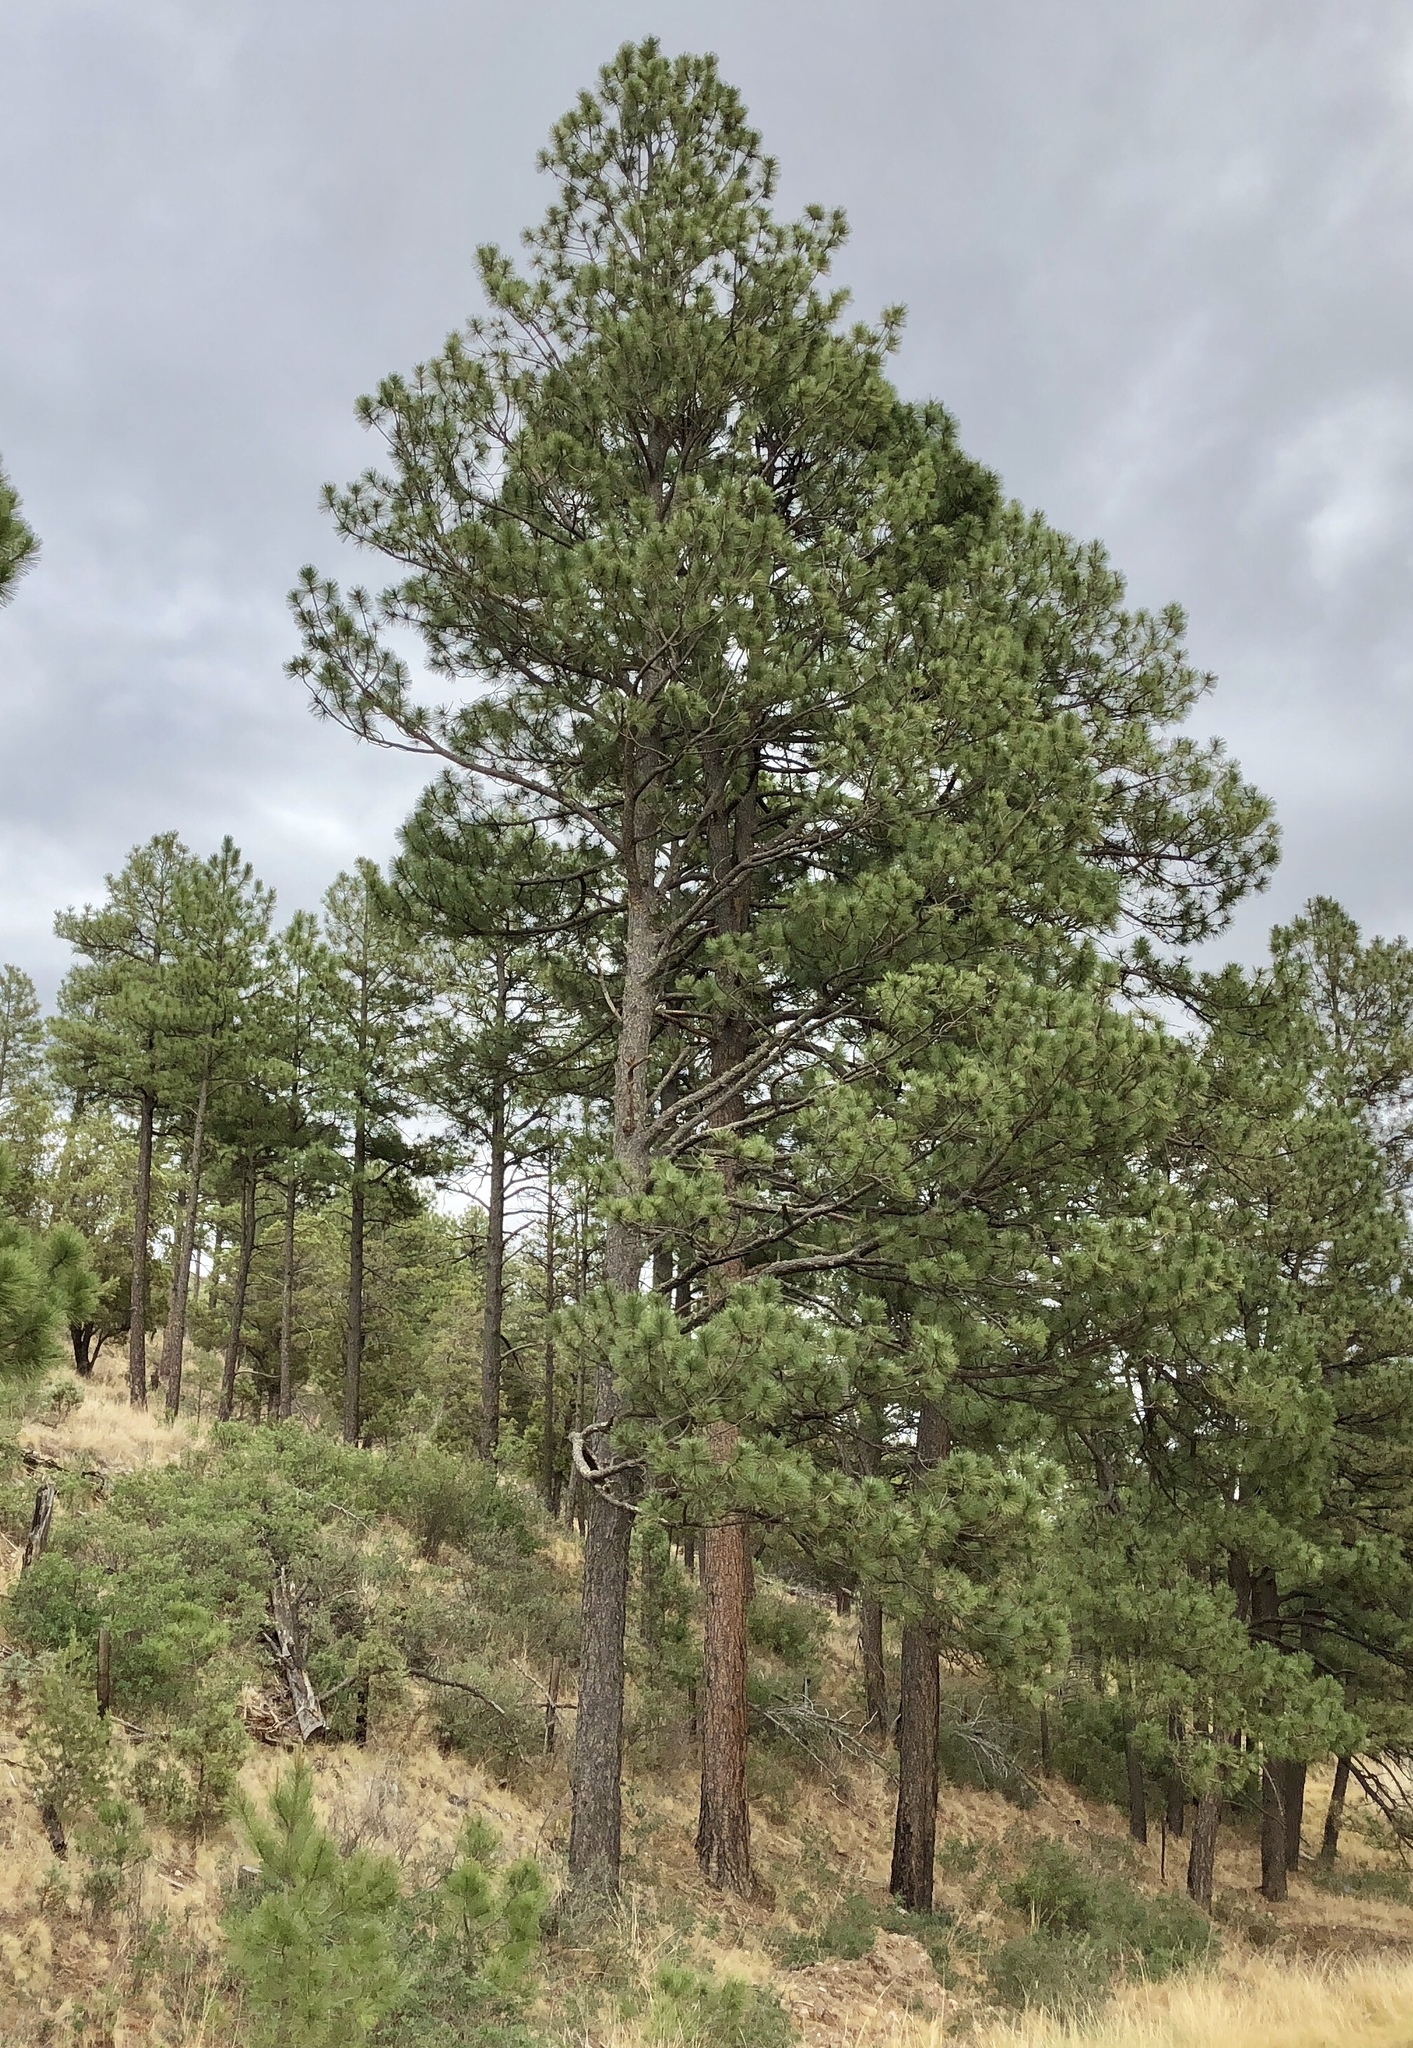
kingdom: Plantae
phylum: Tracheophyta
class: Pinopsida
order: Pinales
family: Pinaceae
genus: Pinus
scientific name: Pinus ponderosa
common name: Western yellow-pine
